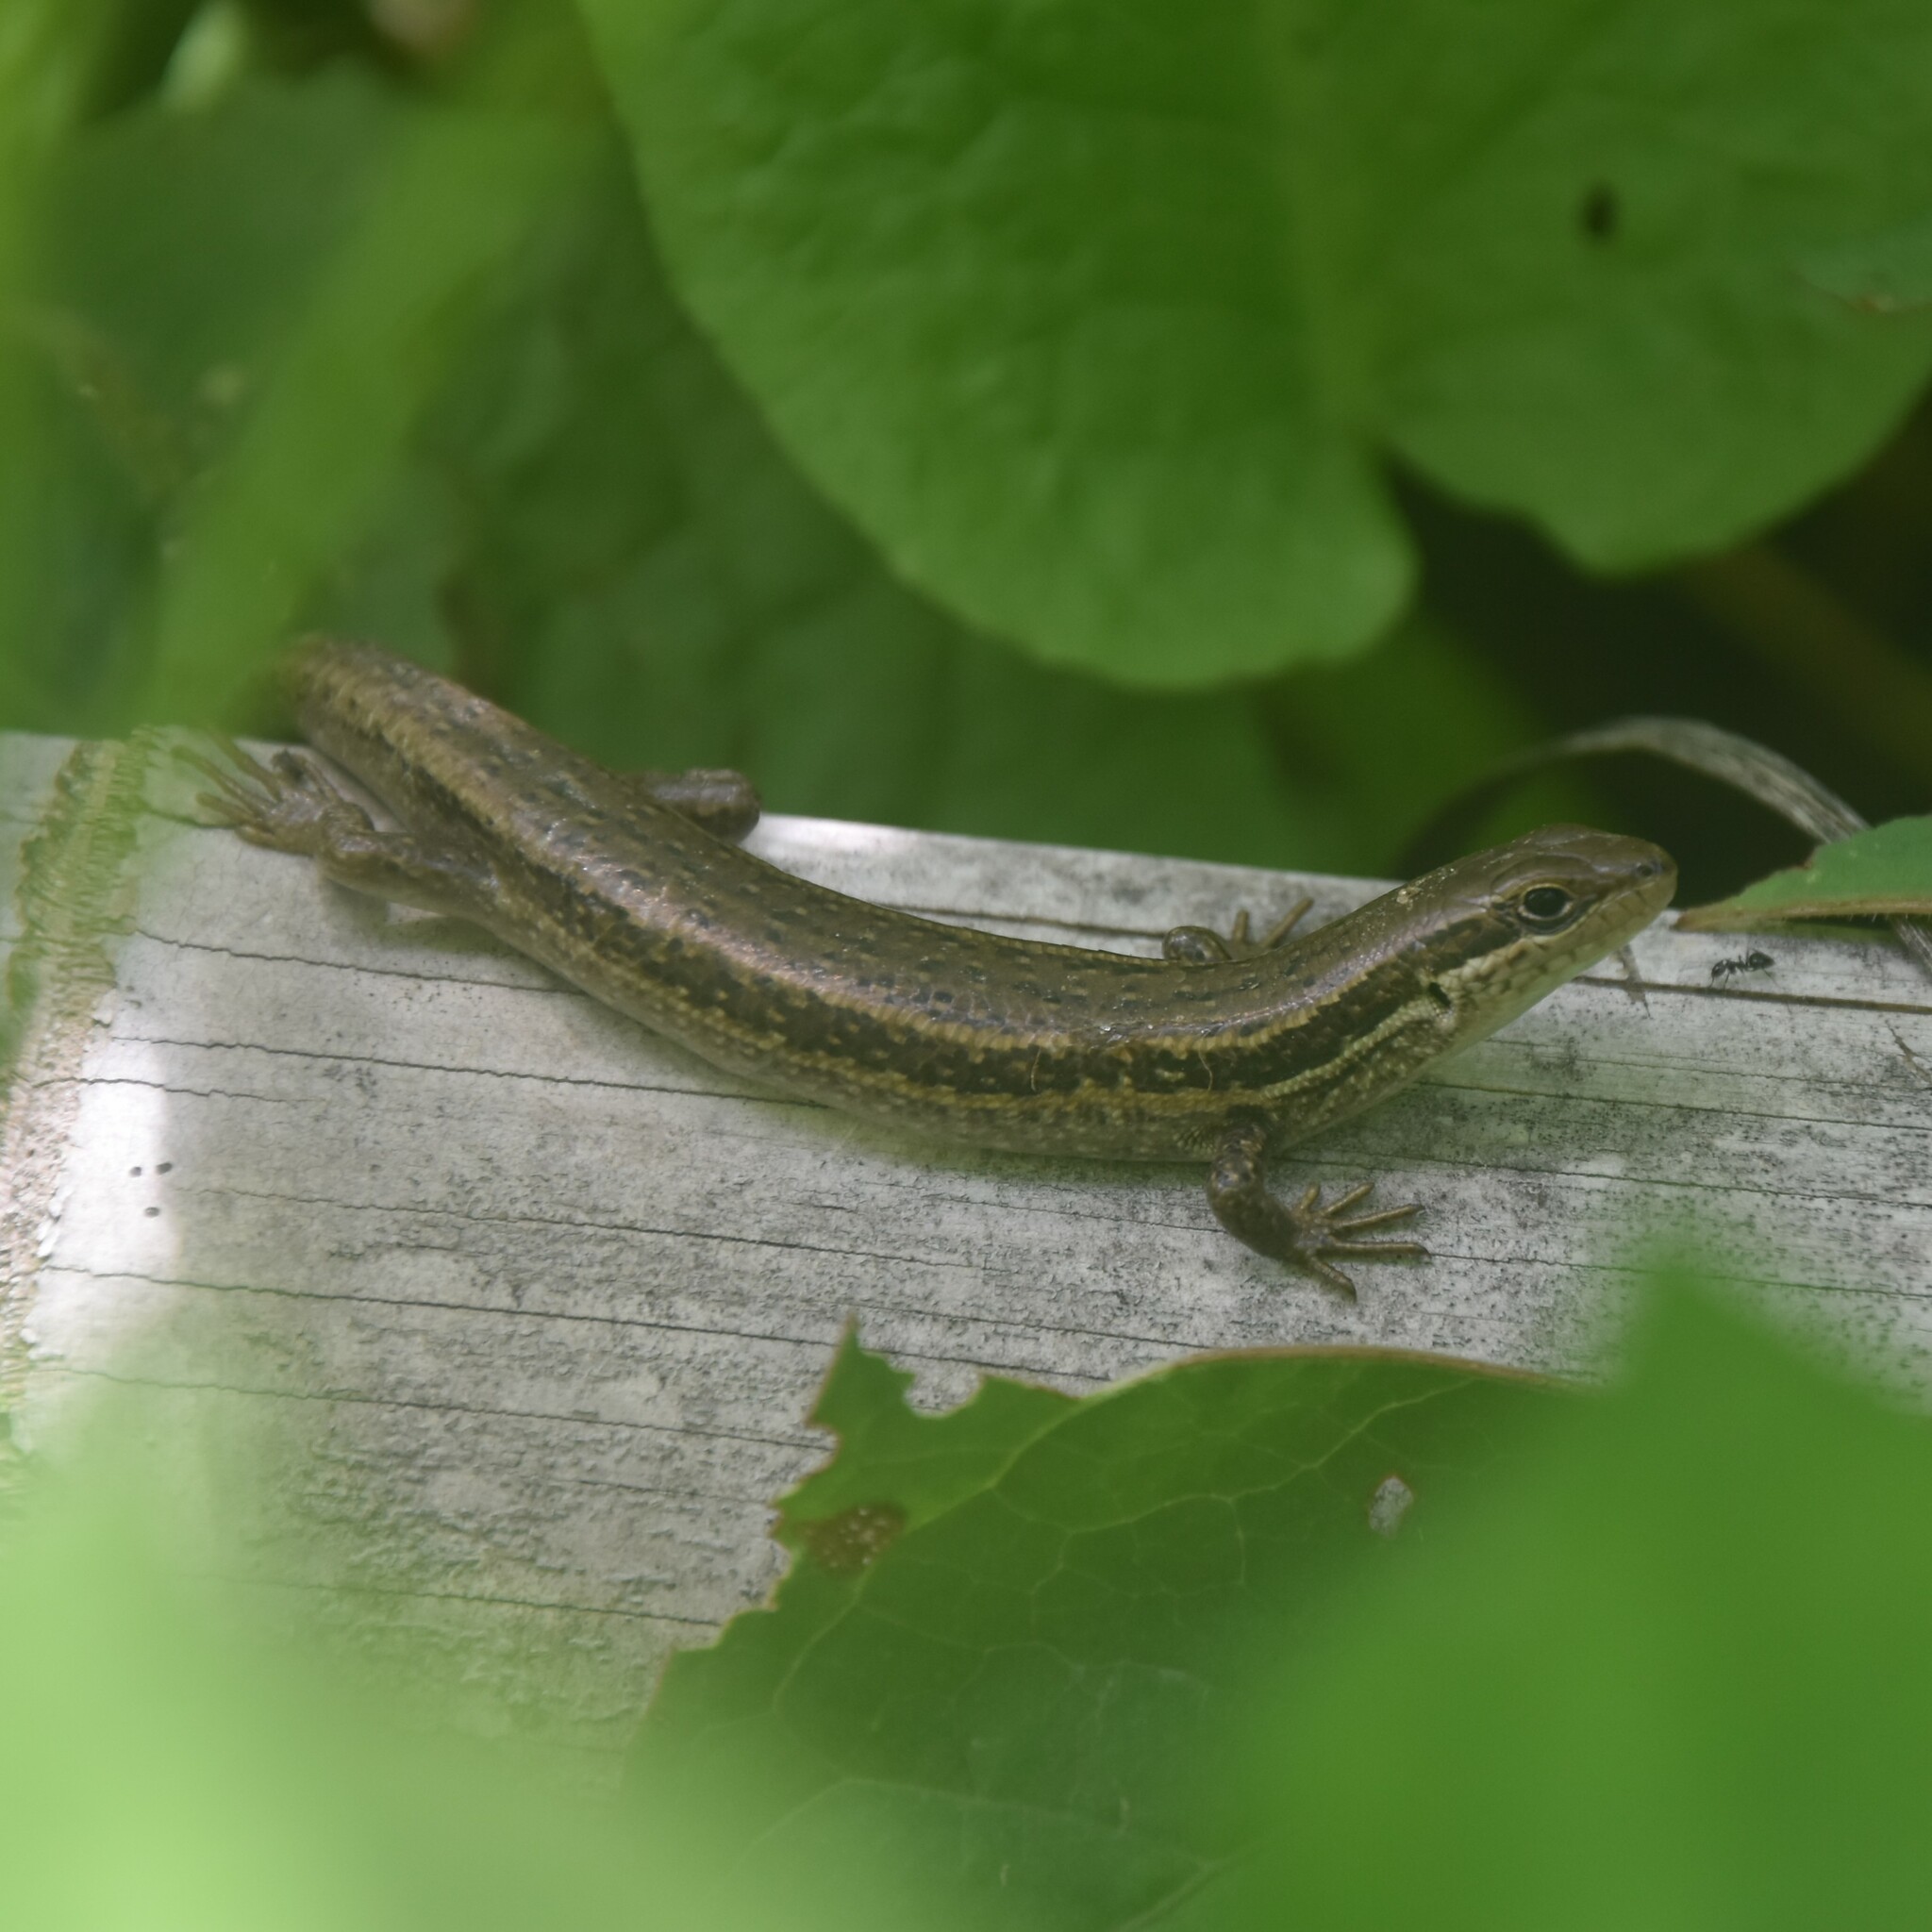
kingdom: Animalia
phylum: Chordata
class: Squamata
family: Scincidae
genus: Asymblepharus
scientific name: Asymblepharus himalayanus
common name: Himalaya ground skink
